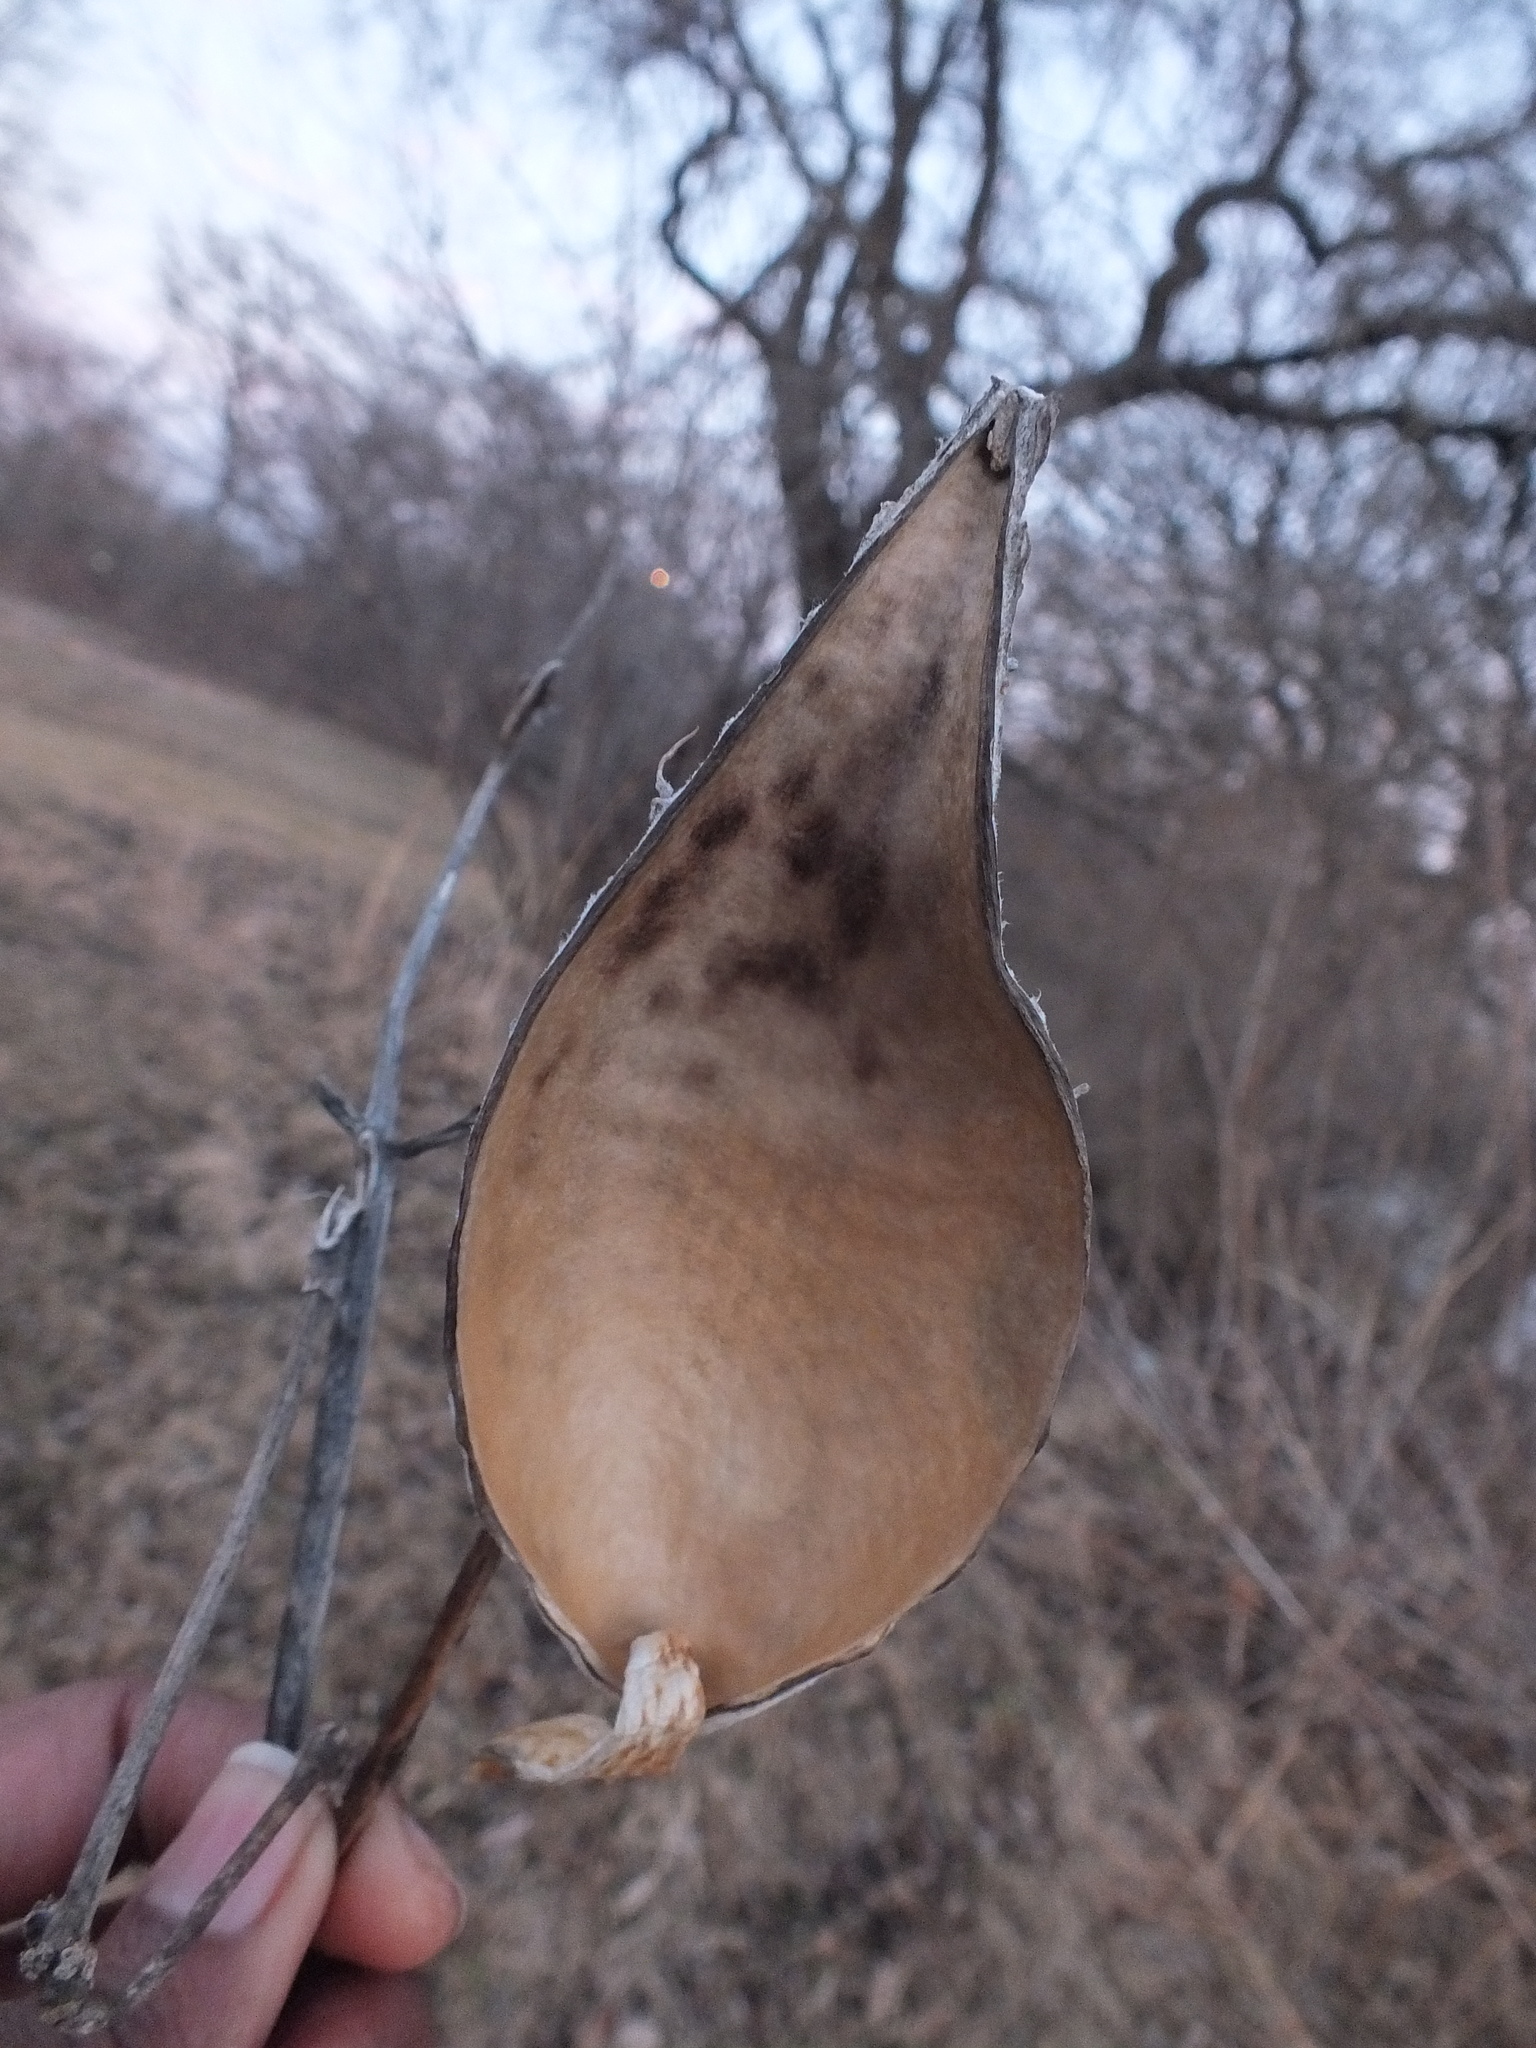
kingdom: Plantae
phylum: Tracheophyta
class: Magnoliopsida
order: Gentianales
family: Apocynaceae
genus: Asclepias
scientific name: Asclepias syriaca
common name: Common milkweed
